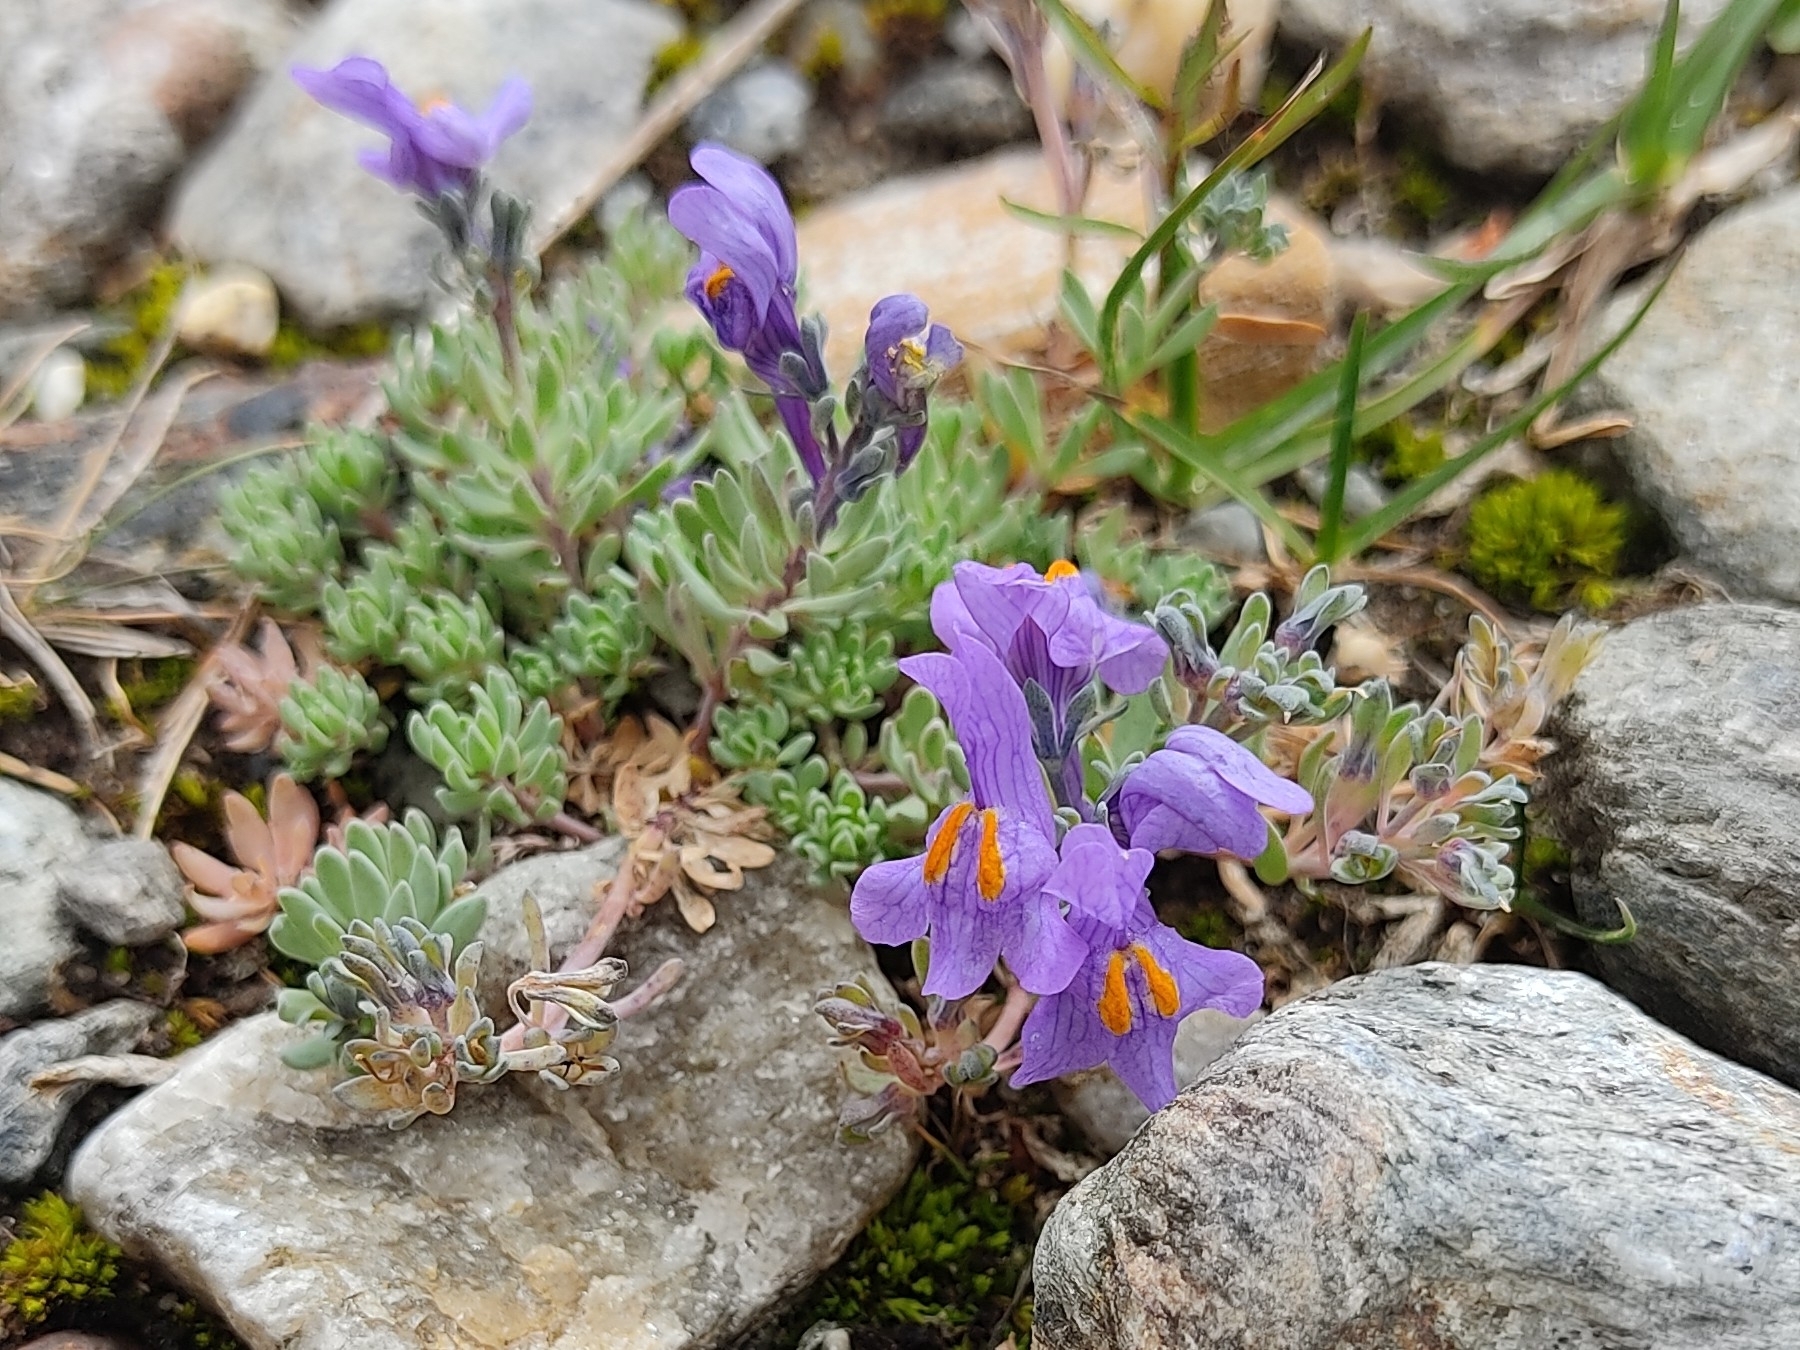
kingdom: Plantae
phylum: Tracheophyta
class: Magnoliopsida
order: Lamiales
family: Plantaginaceae
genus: Linaria
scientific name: Linaria alpina
